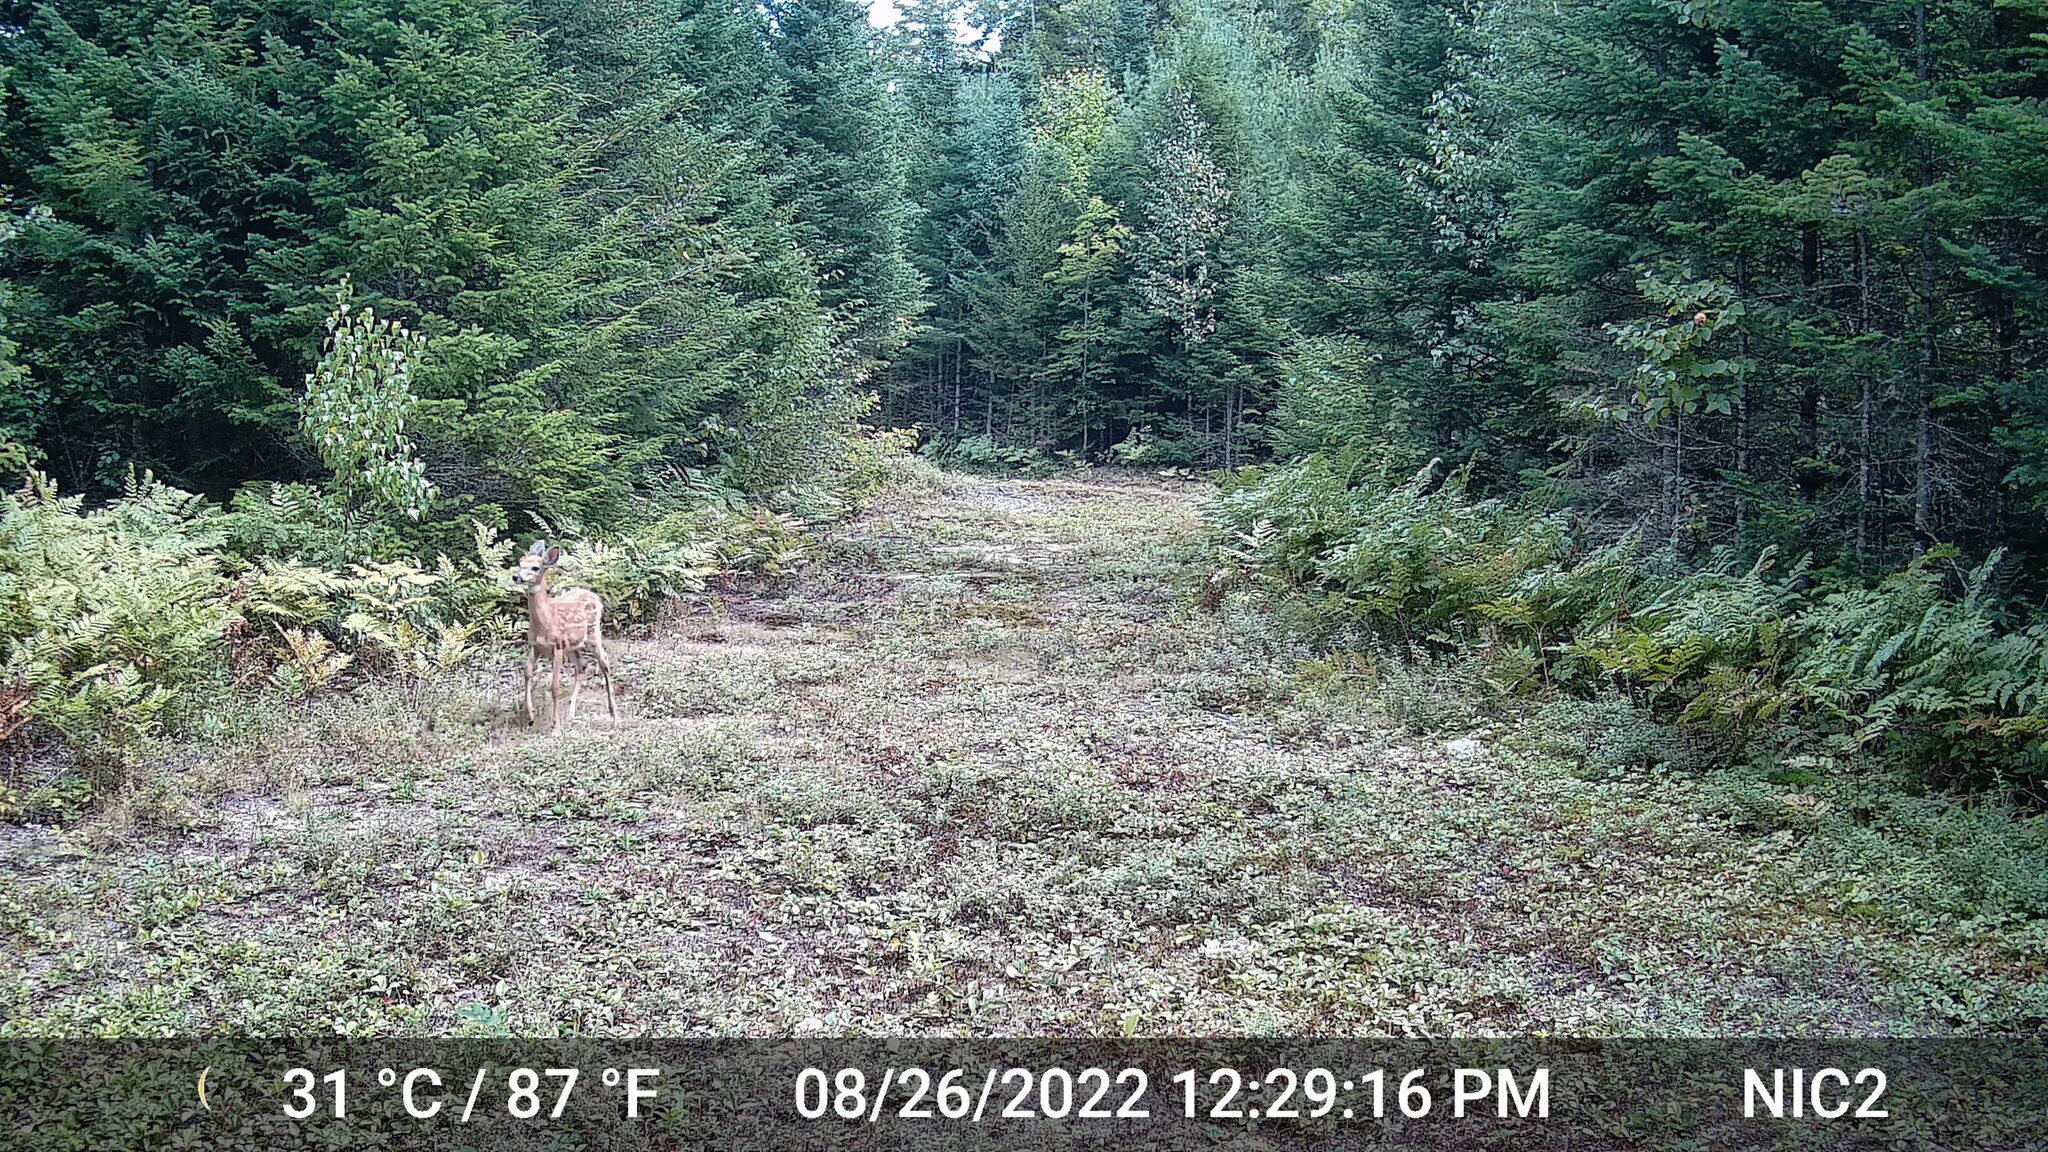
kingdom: Animalia
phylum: Chordata
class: Mammalia
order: Artiodactyla
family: Cervidae
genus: Odocoileus
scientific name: Odocoileus virginianus
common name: White-tailed deer
